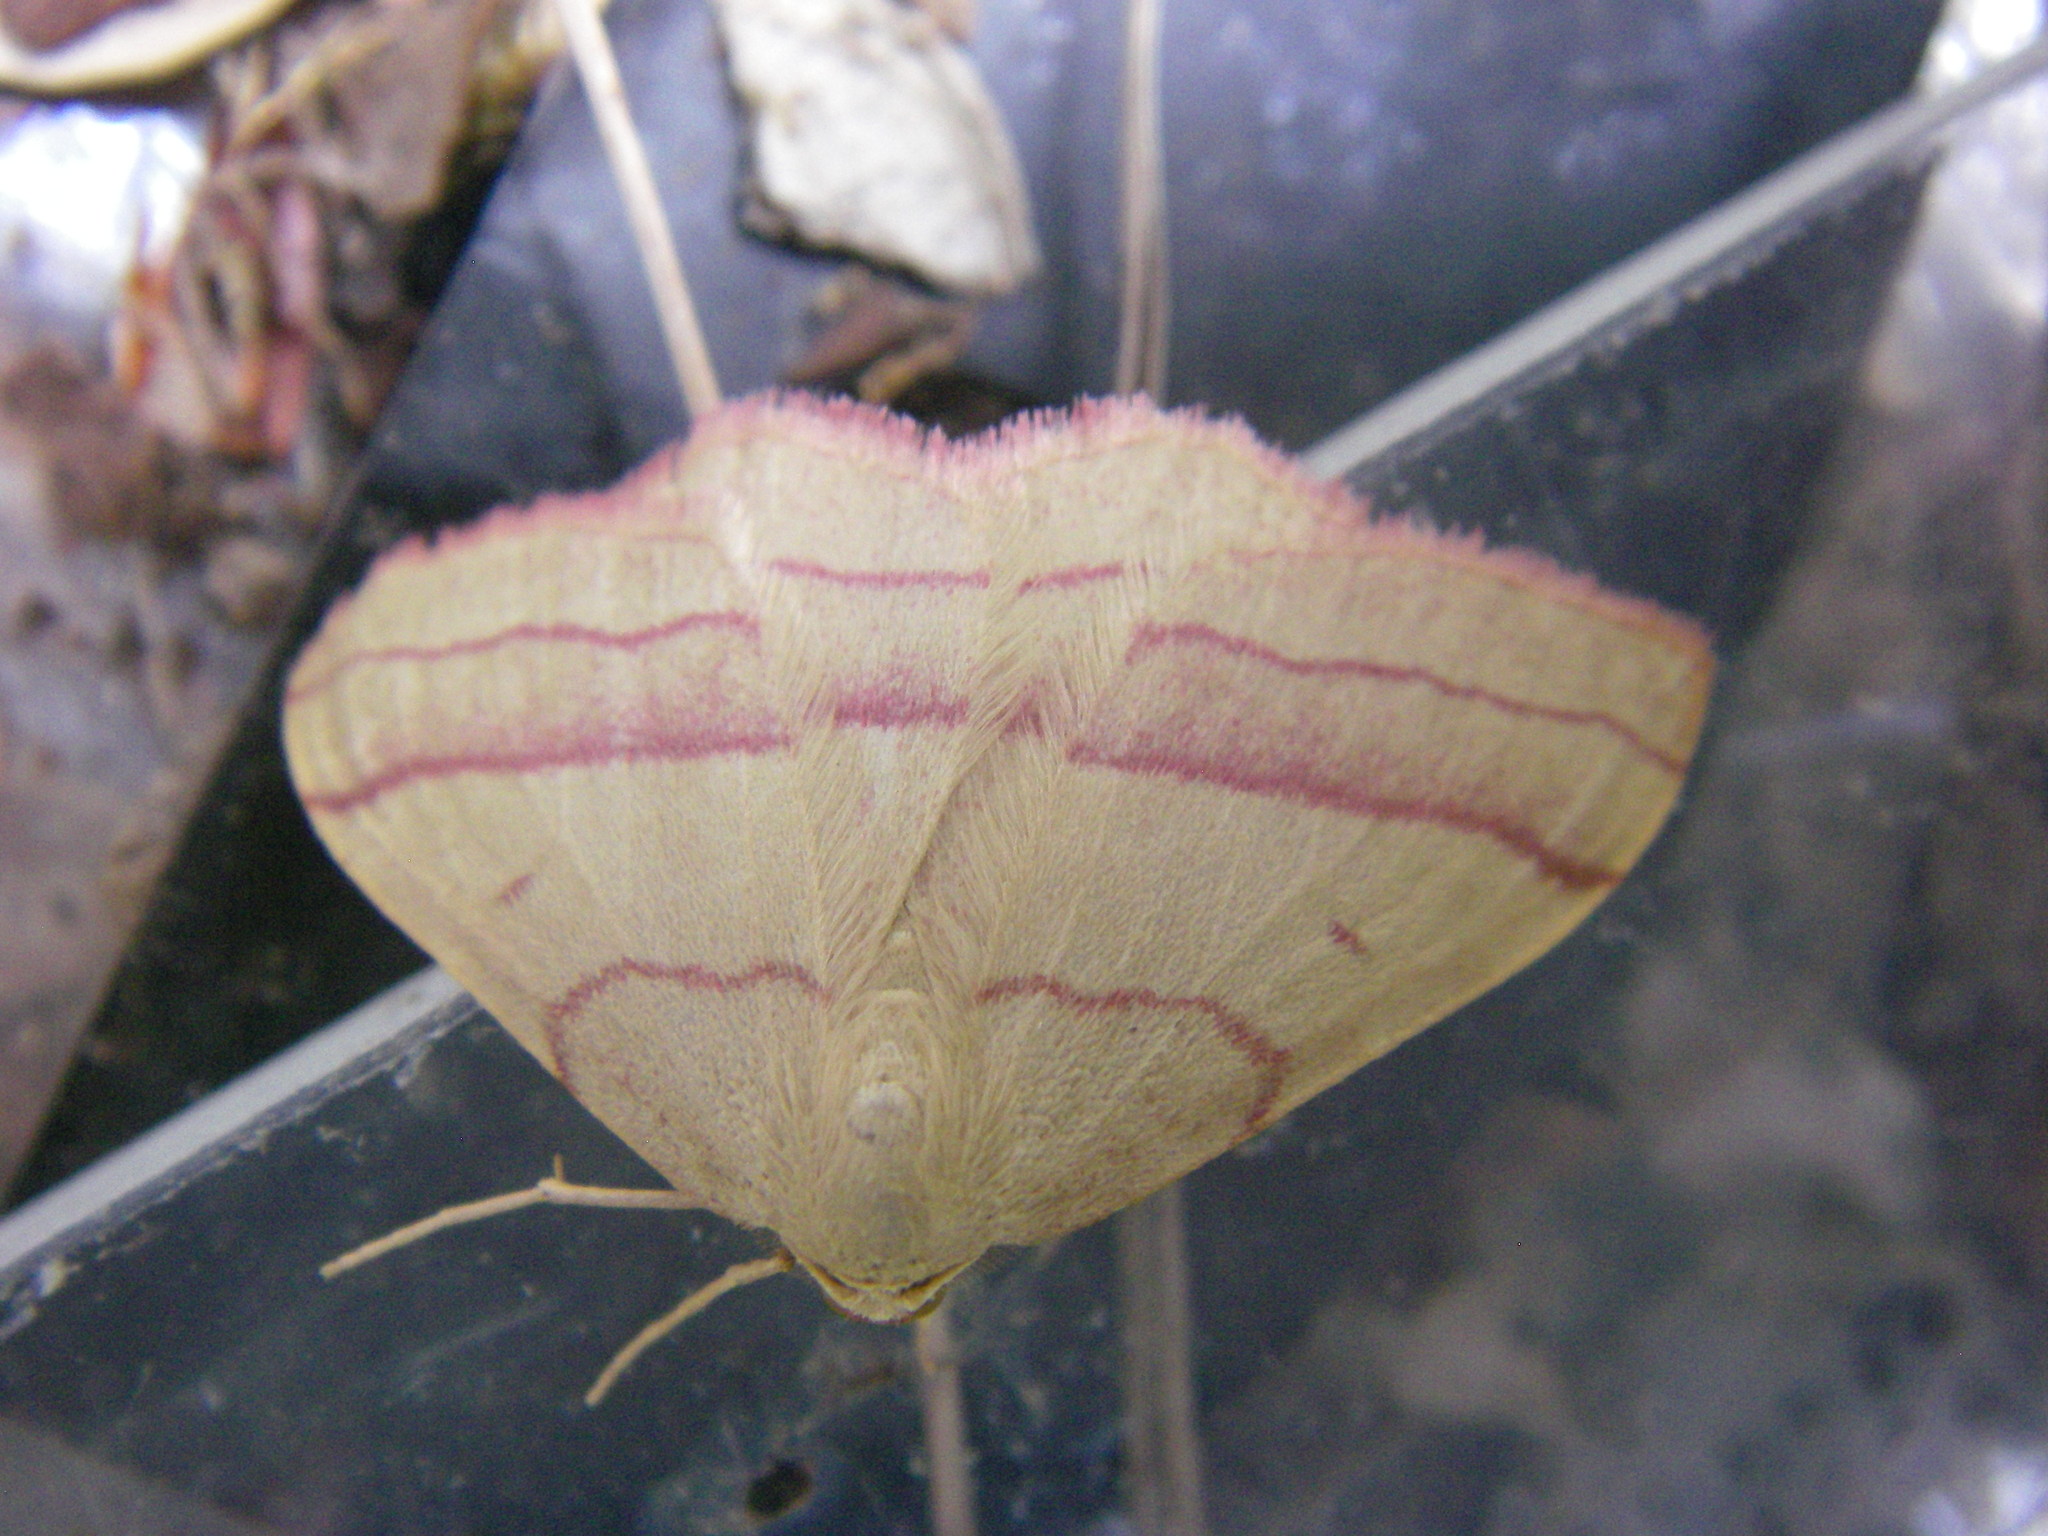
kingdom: Animalia
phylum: Arthropoda
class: Insecta
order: Lepidoptera
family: Geometridae
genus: Rhodostrophia
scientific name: Rhodostrophia vibicaria
